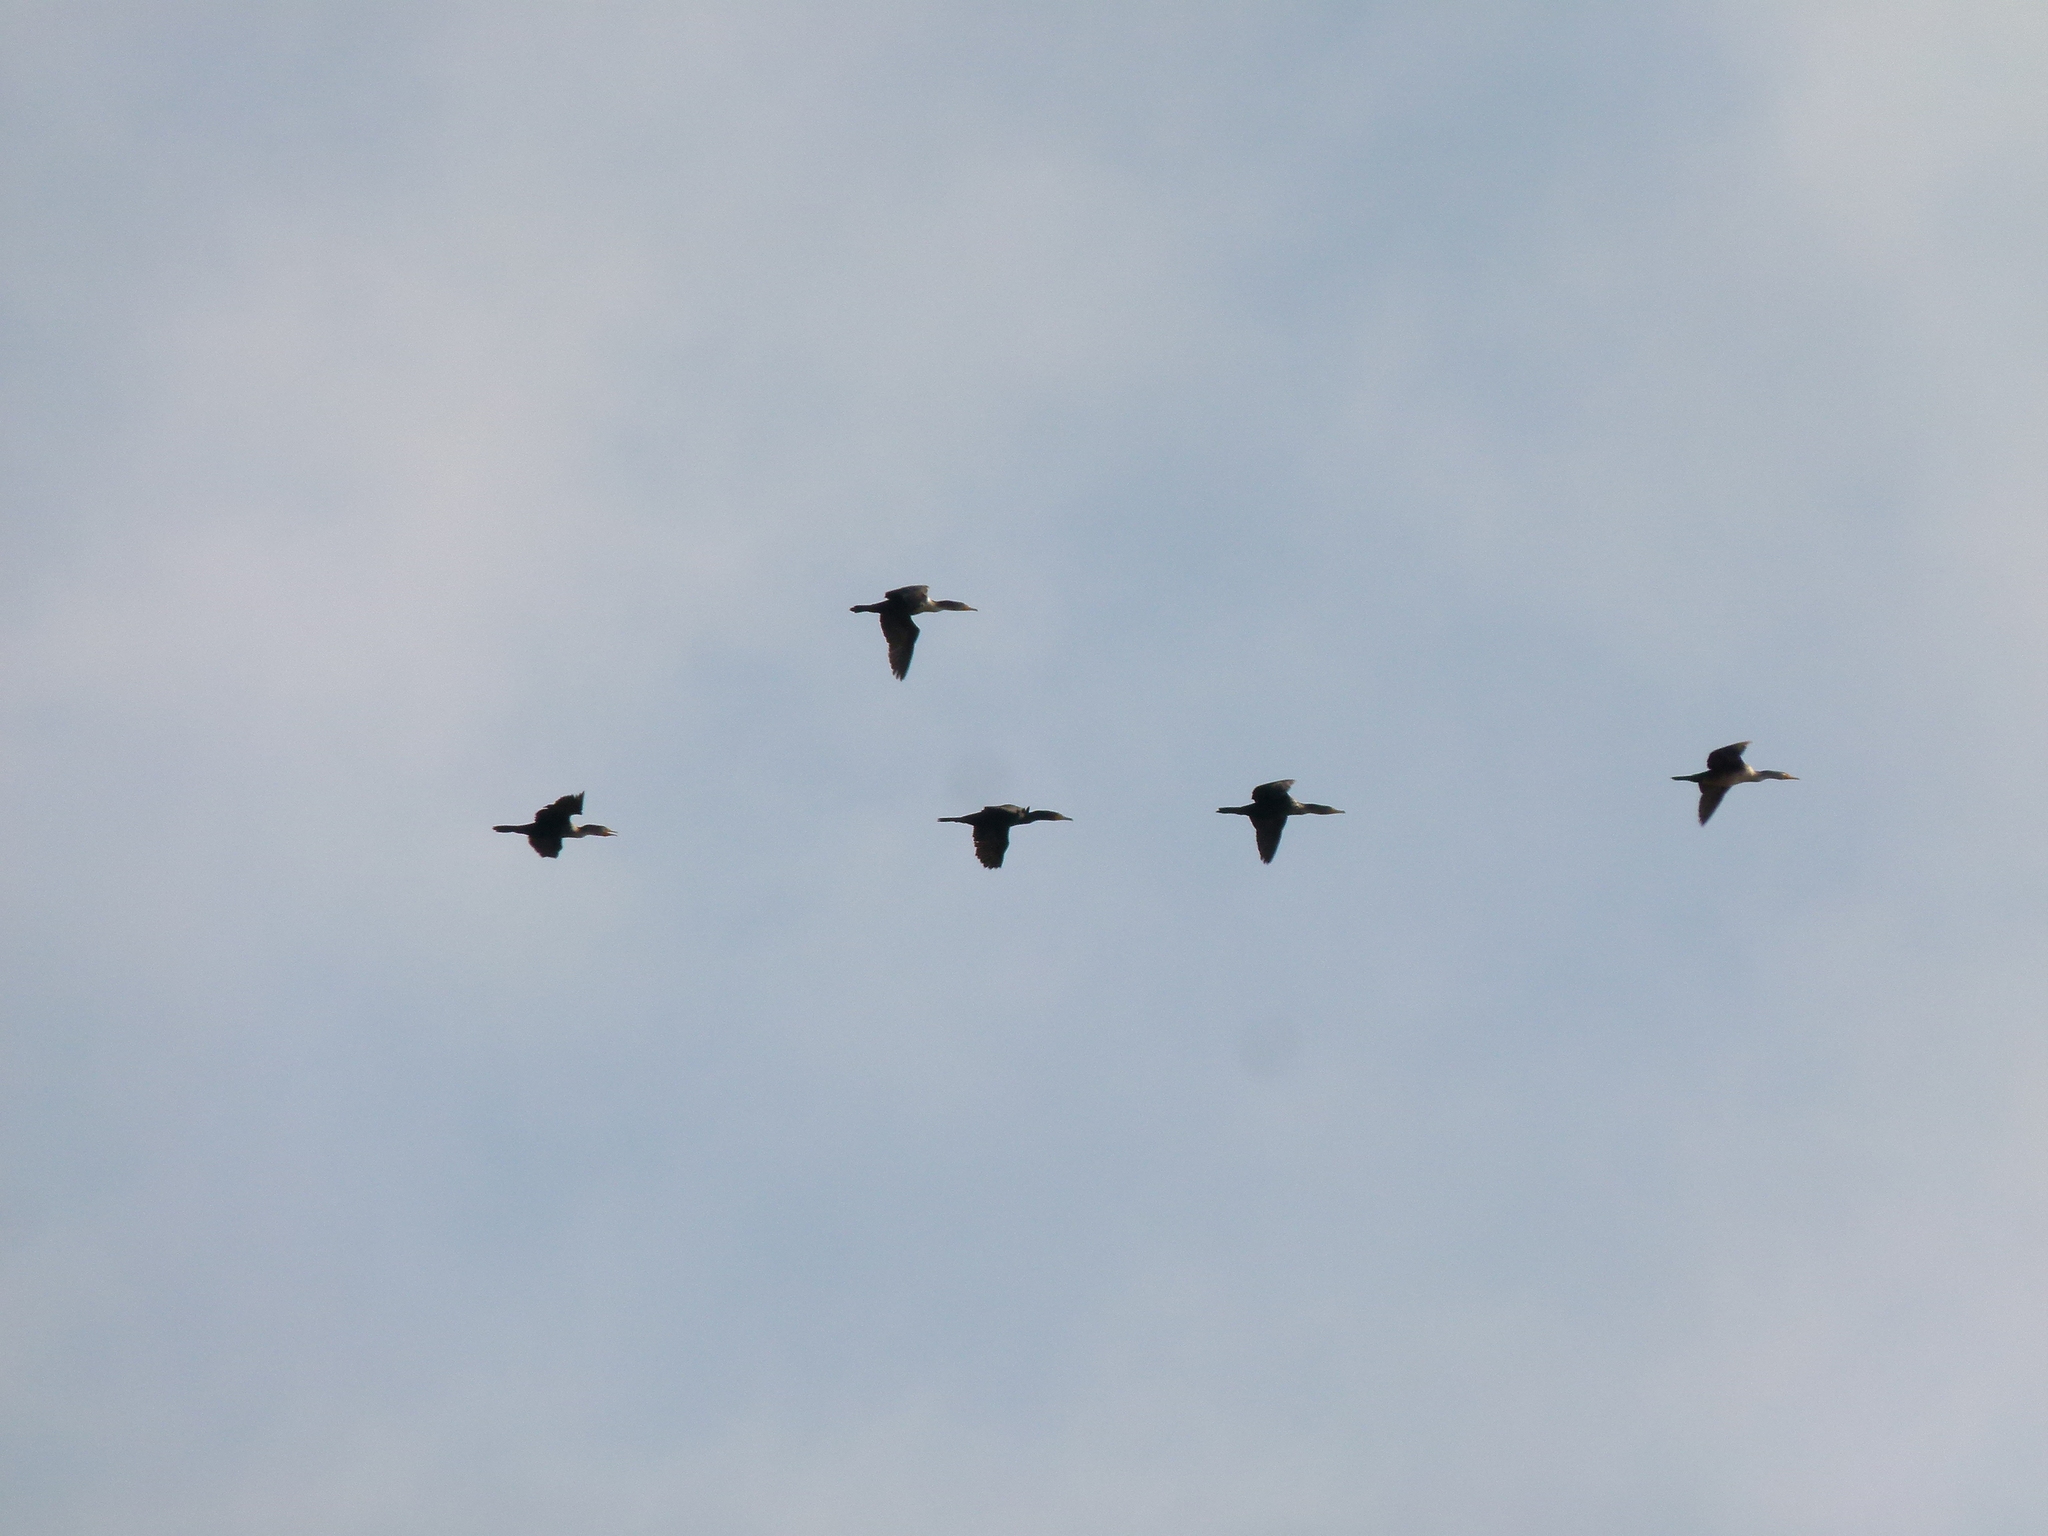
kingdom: Animalia
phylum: Chordata
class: Aves
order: Suliformes
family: Phalacrocoracidae
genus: Phalacrocorax
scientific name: Phalacrocorax auritus
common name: Double-crested cormorant
